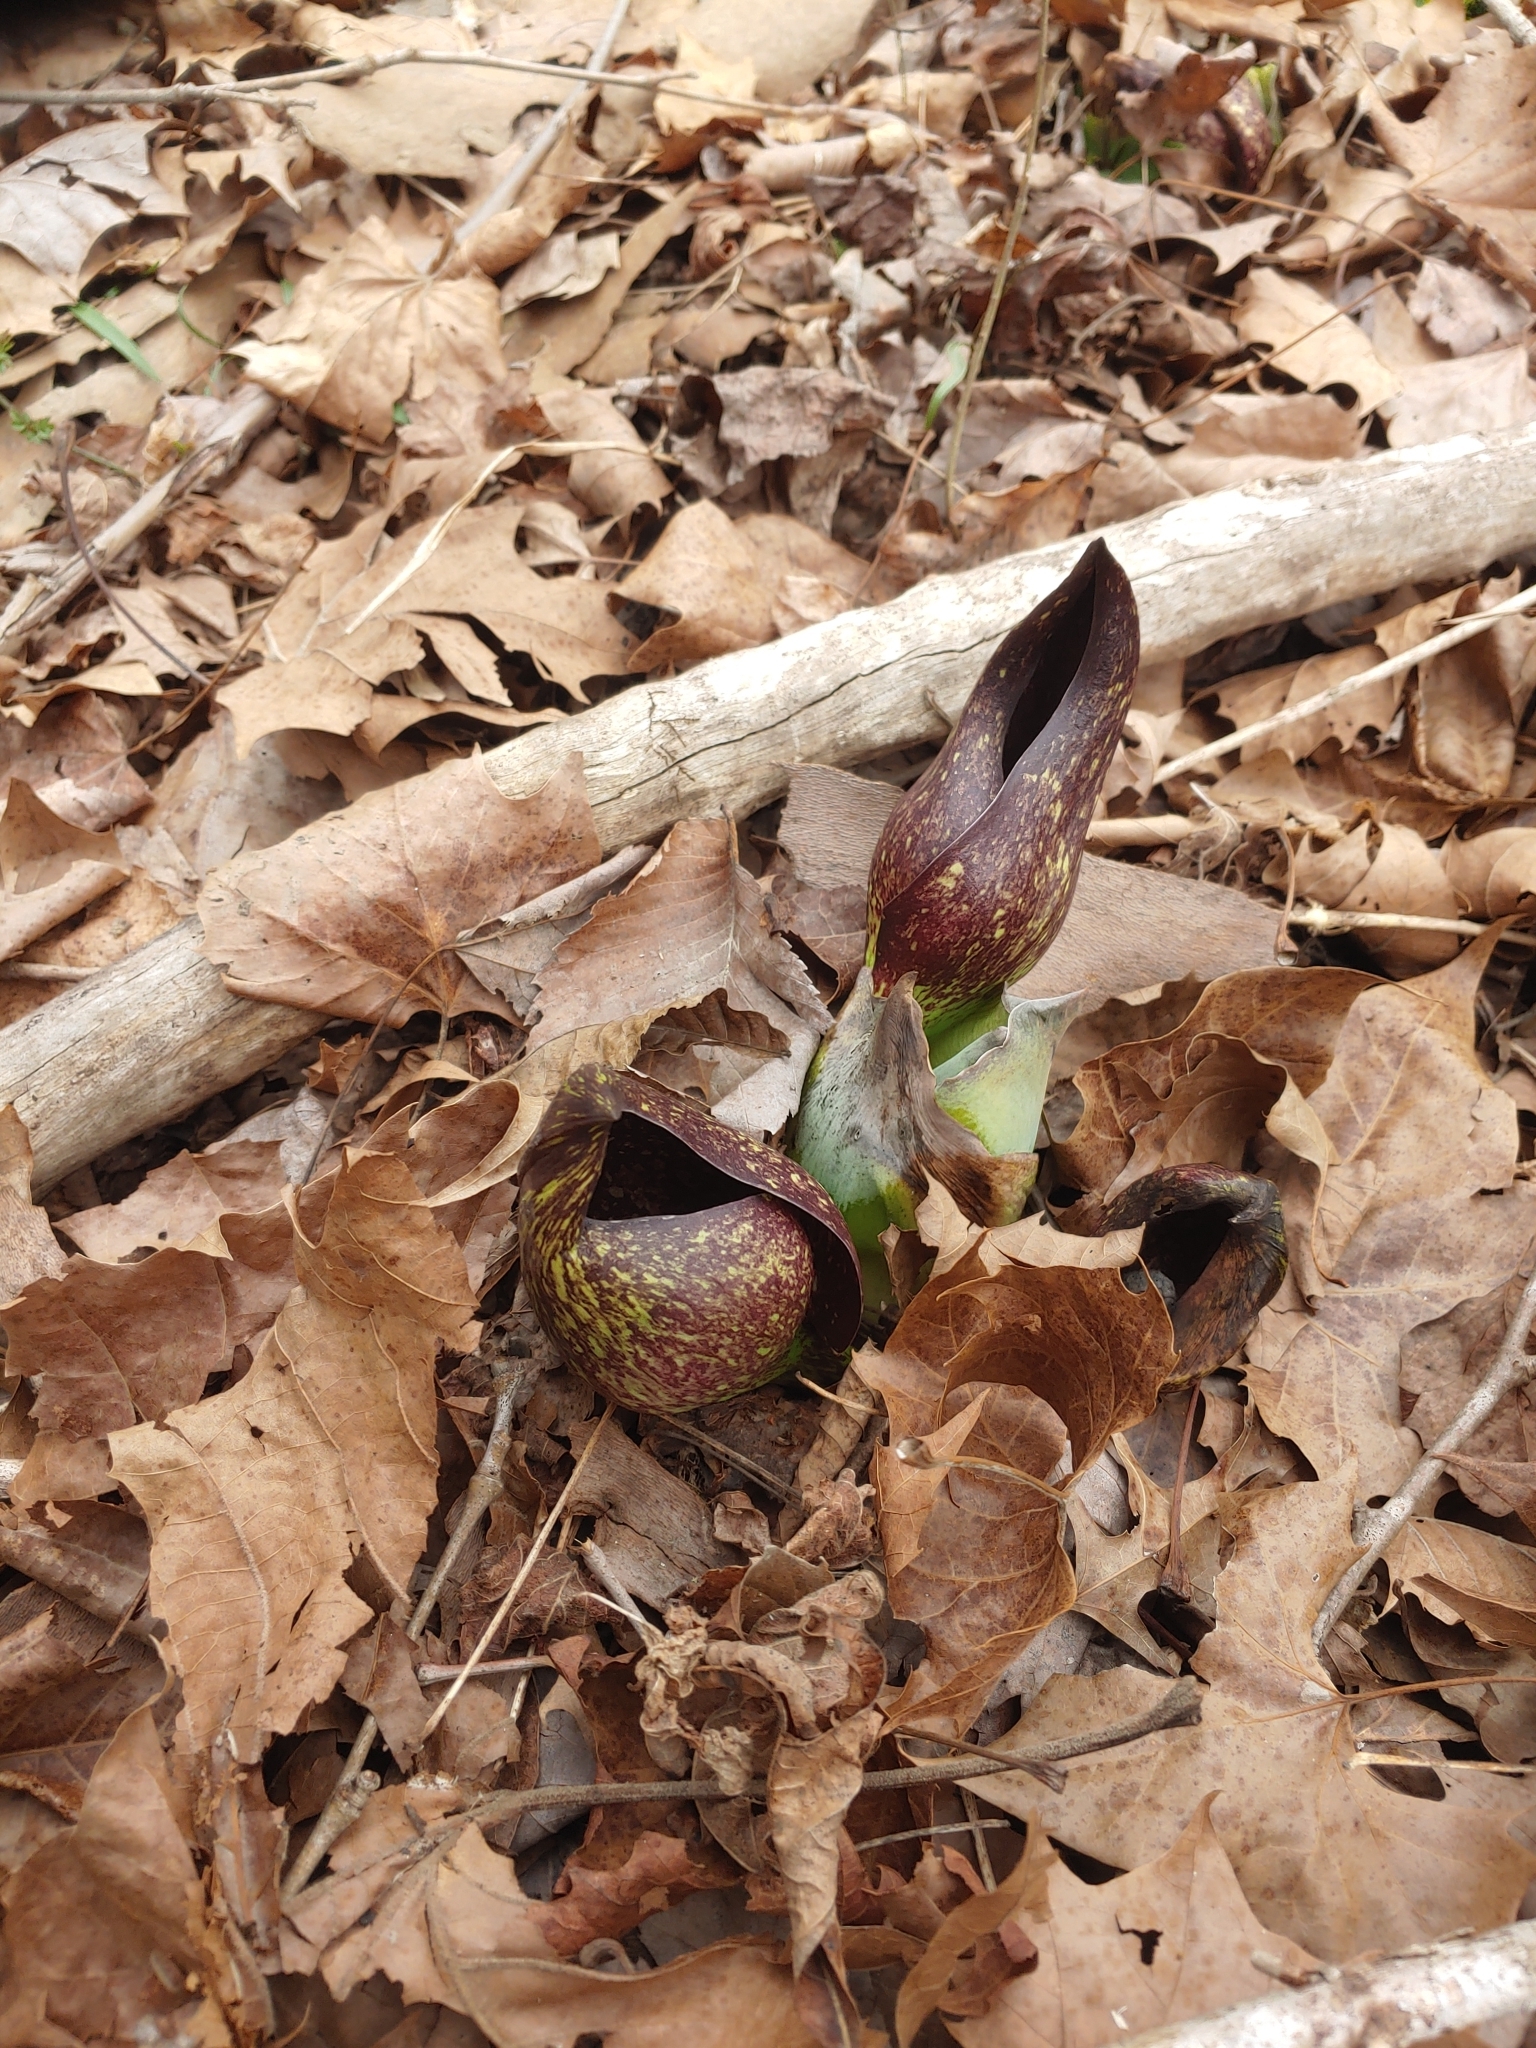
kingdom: Plantae
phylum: Tracheophyta
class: Liliopsida
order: Alismatales
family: Araceae
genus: Symplocarpus
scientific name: Symplocarpus foetidus
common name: Eastern skunk cabbage
